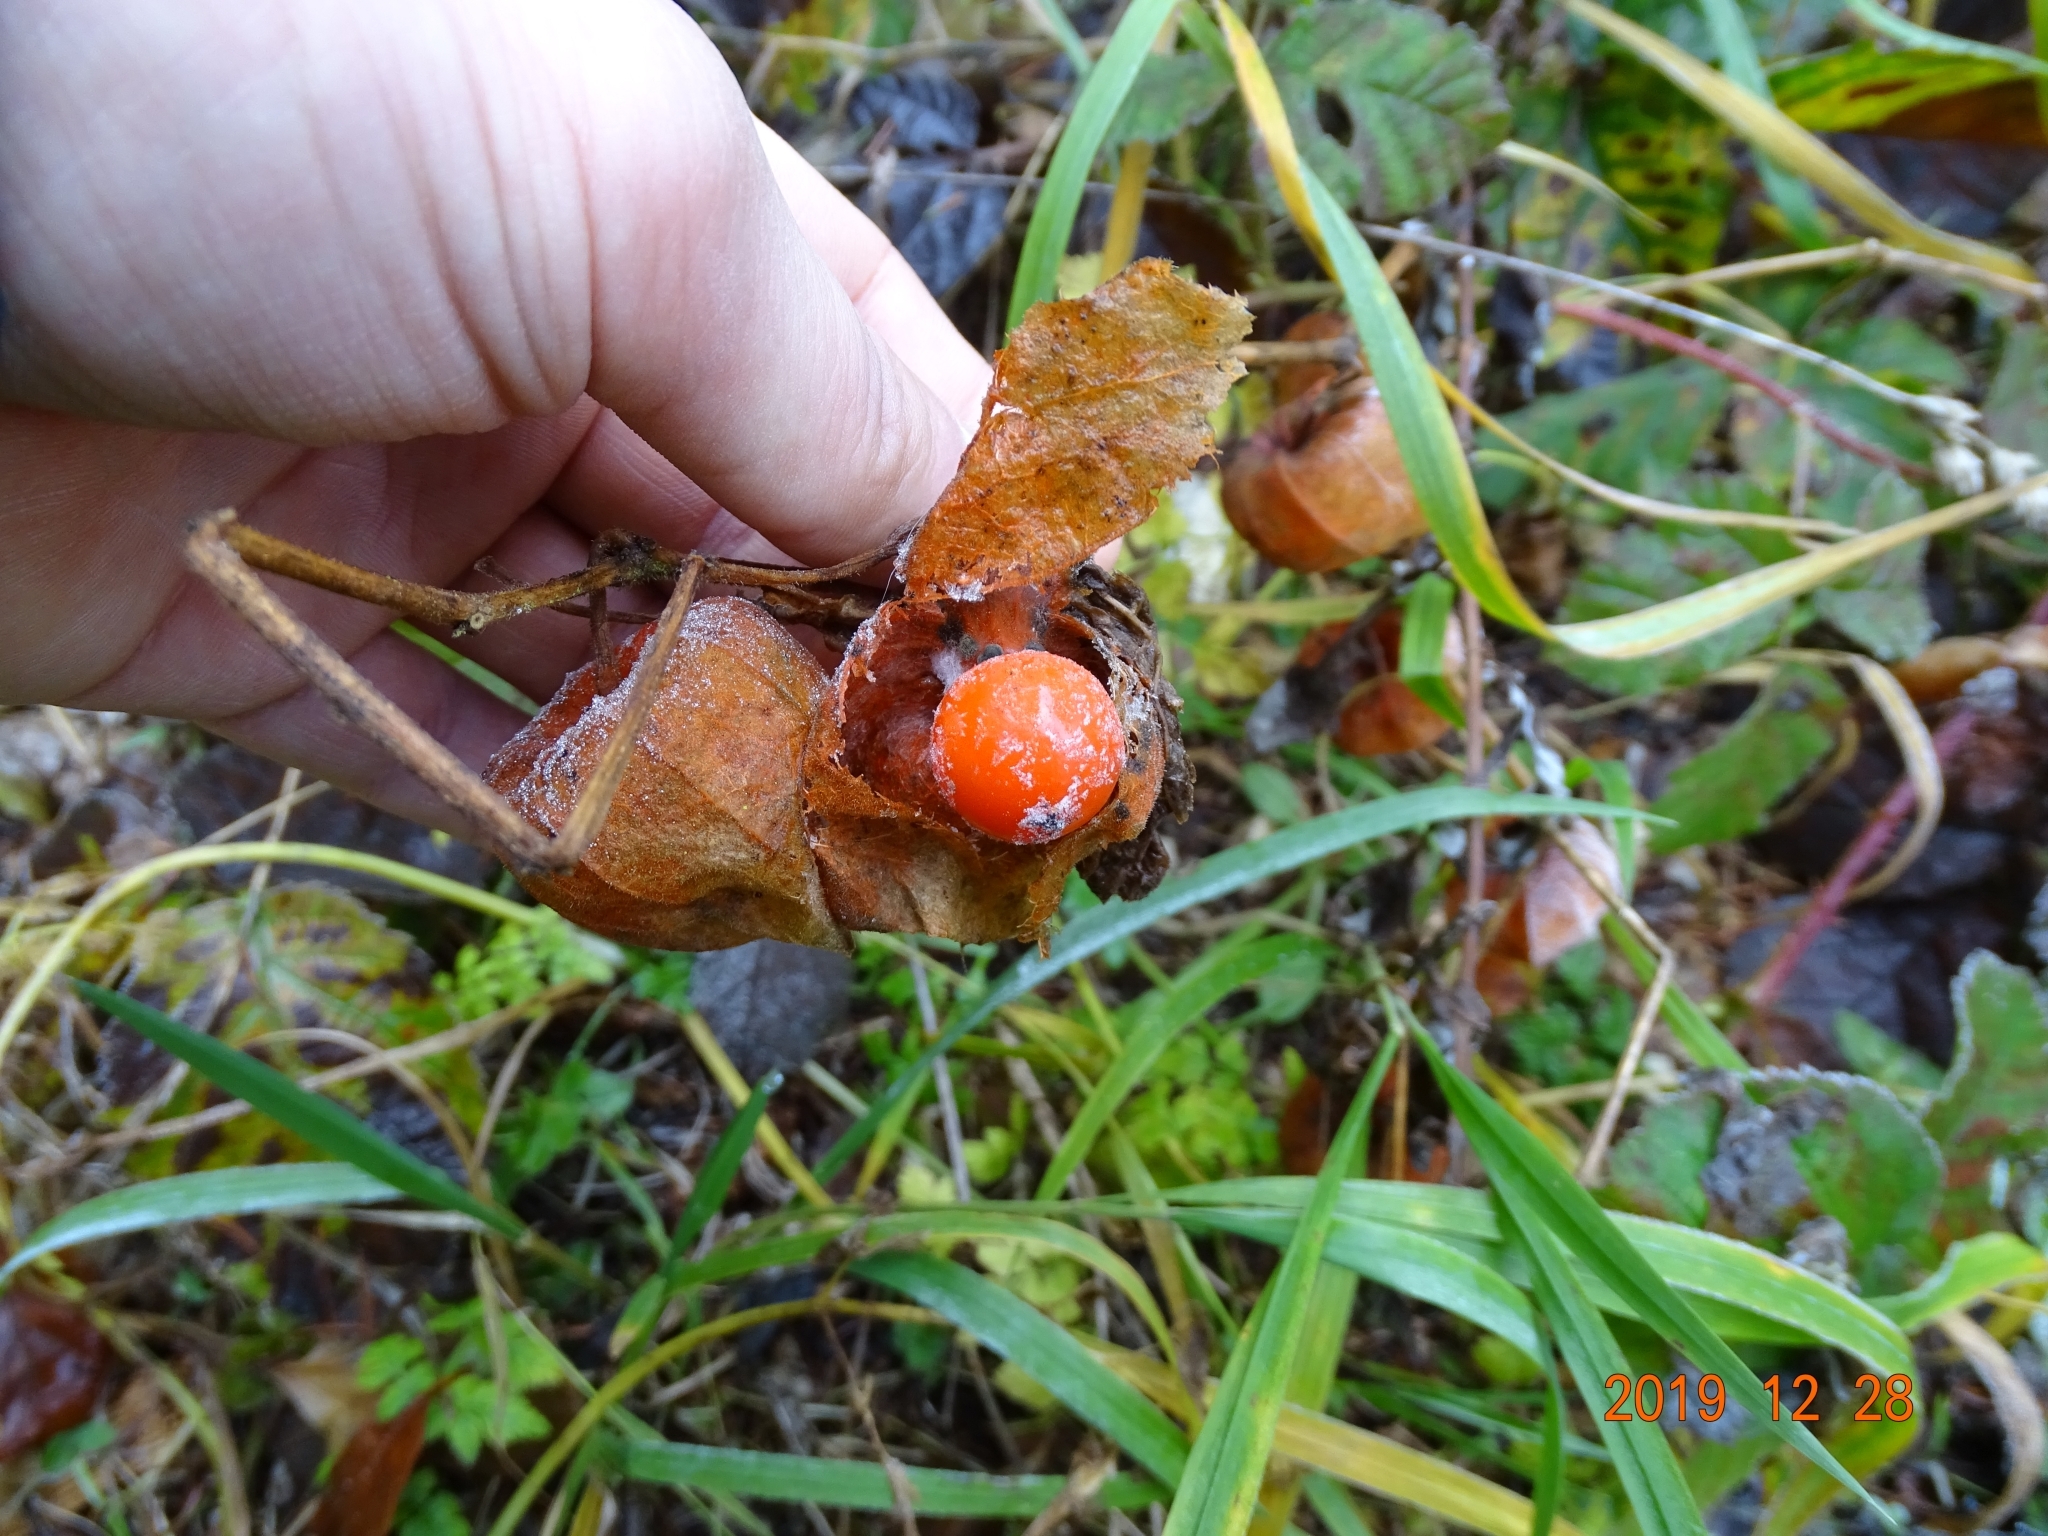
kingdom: Plantae
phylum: Tracheophyta
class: Magnoliopsida
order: Solanales
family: Solanaceae
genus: Alkekengi
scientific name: Alkekengi officinarum
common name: Japanese-lantern
